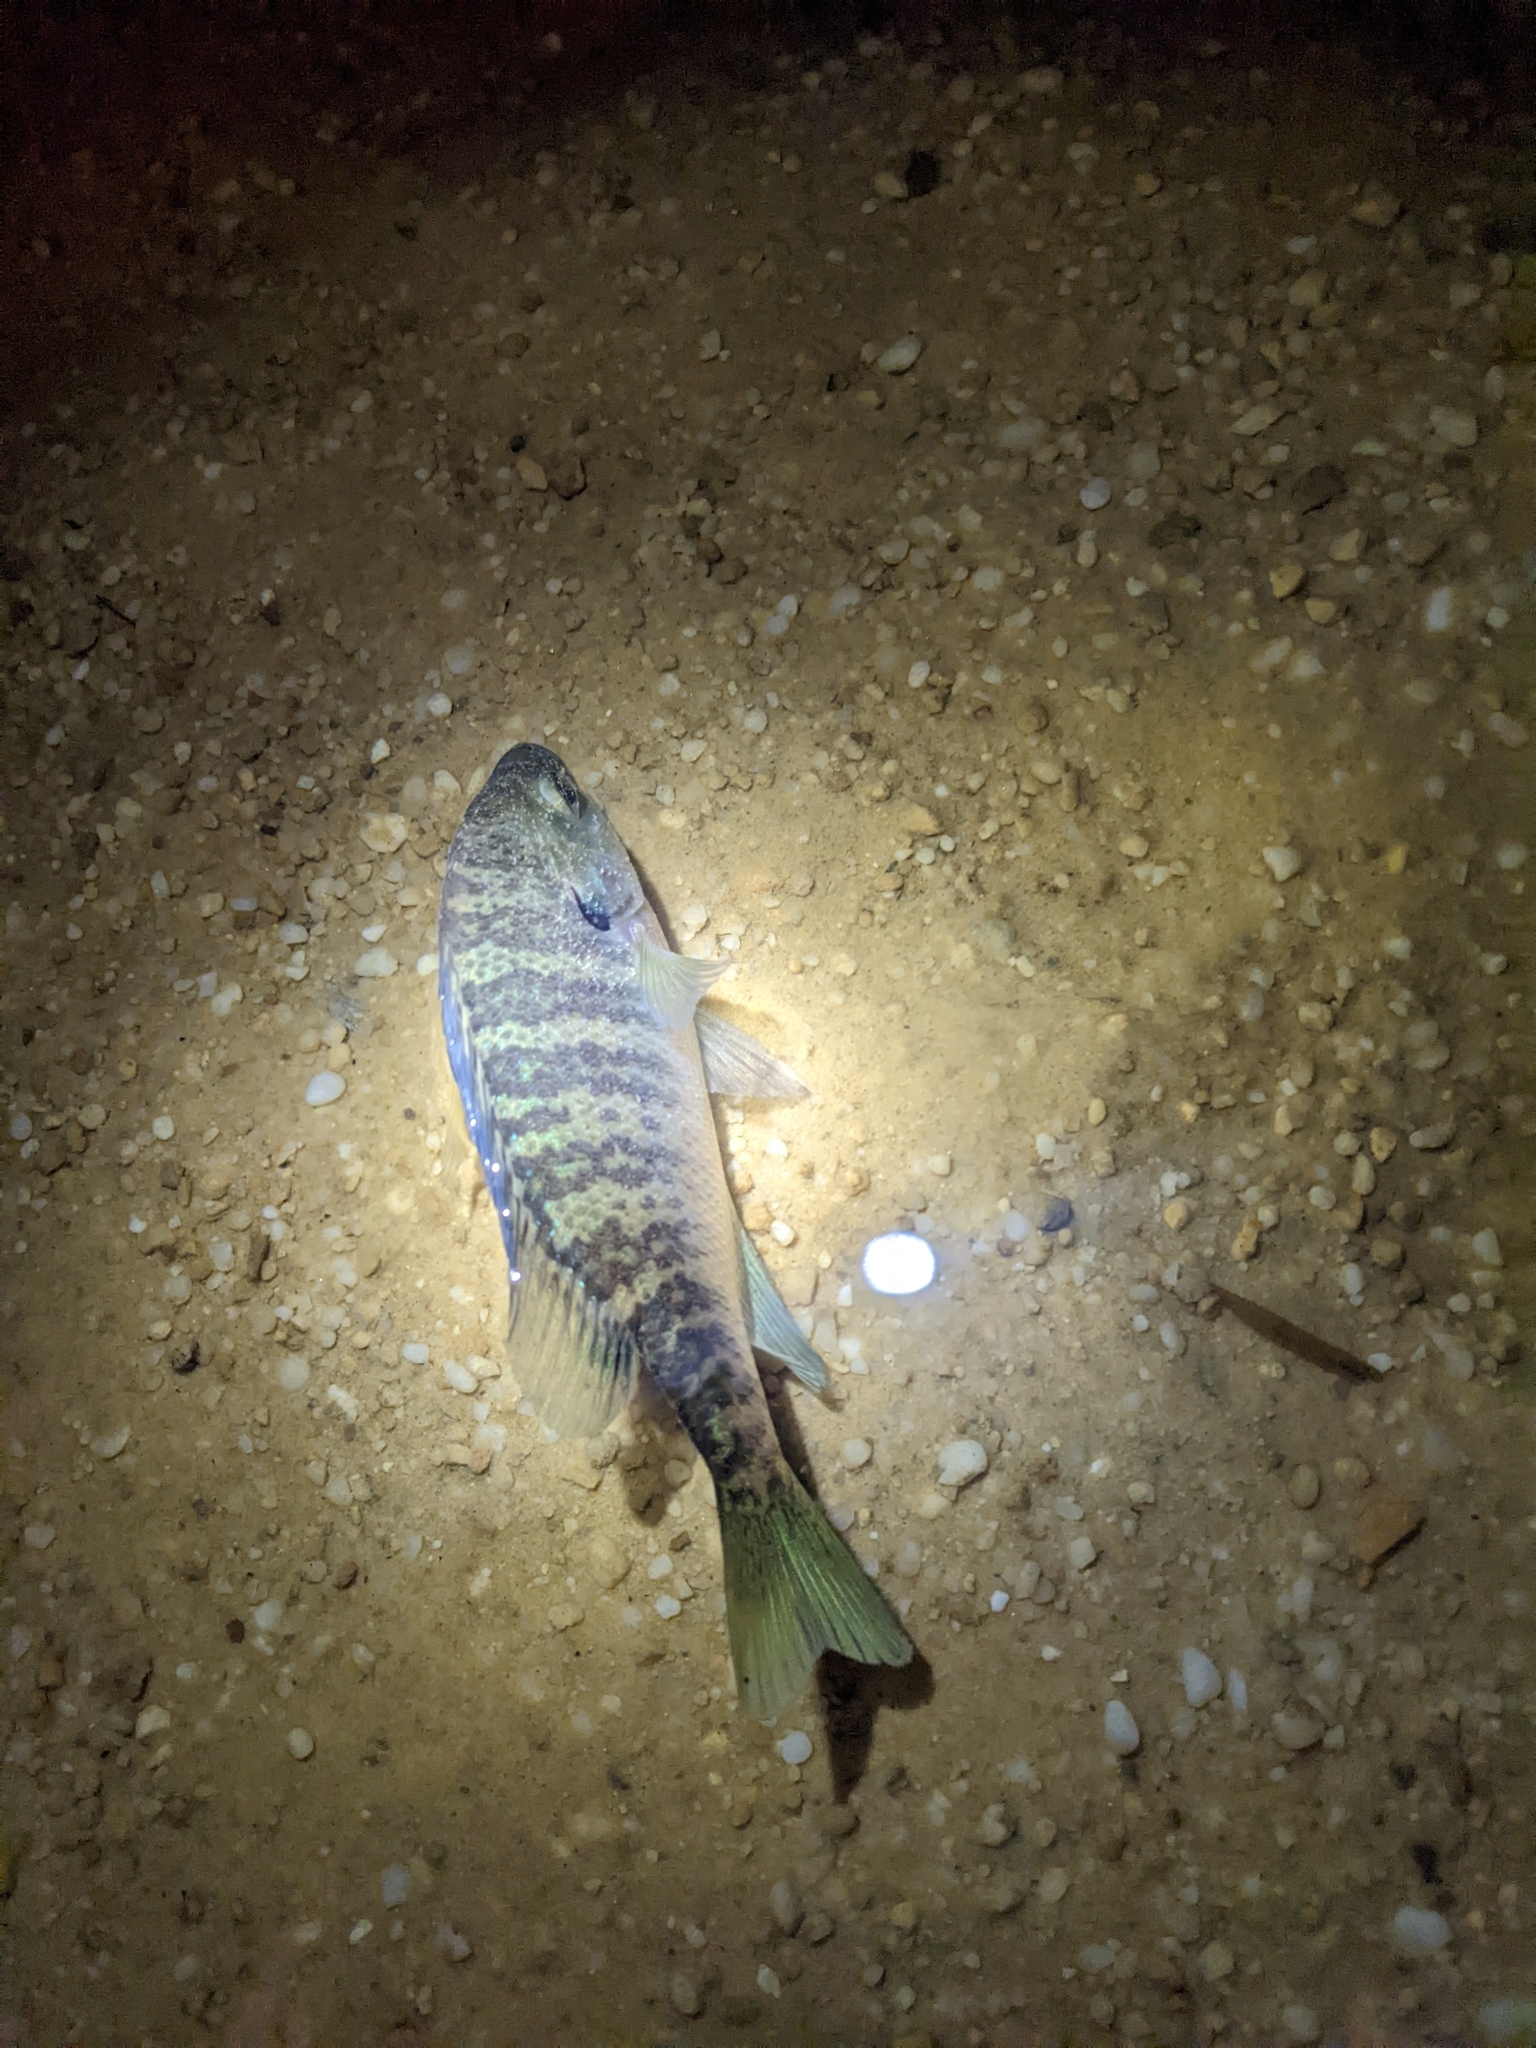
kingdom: Animalia
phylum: Chordata
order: Perciformes
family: Centrarchidae
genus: Lepomis
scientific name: Lepomis macrochirus
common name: Bluegill
